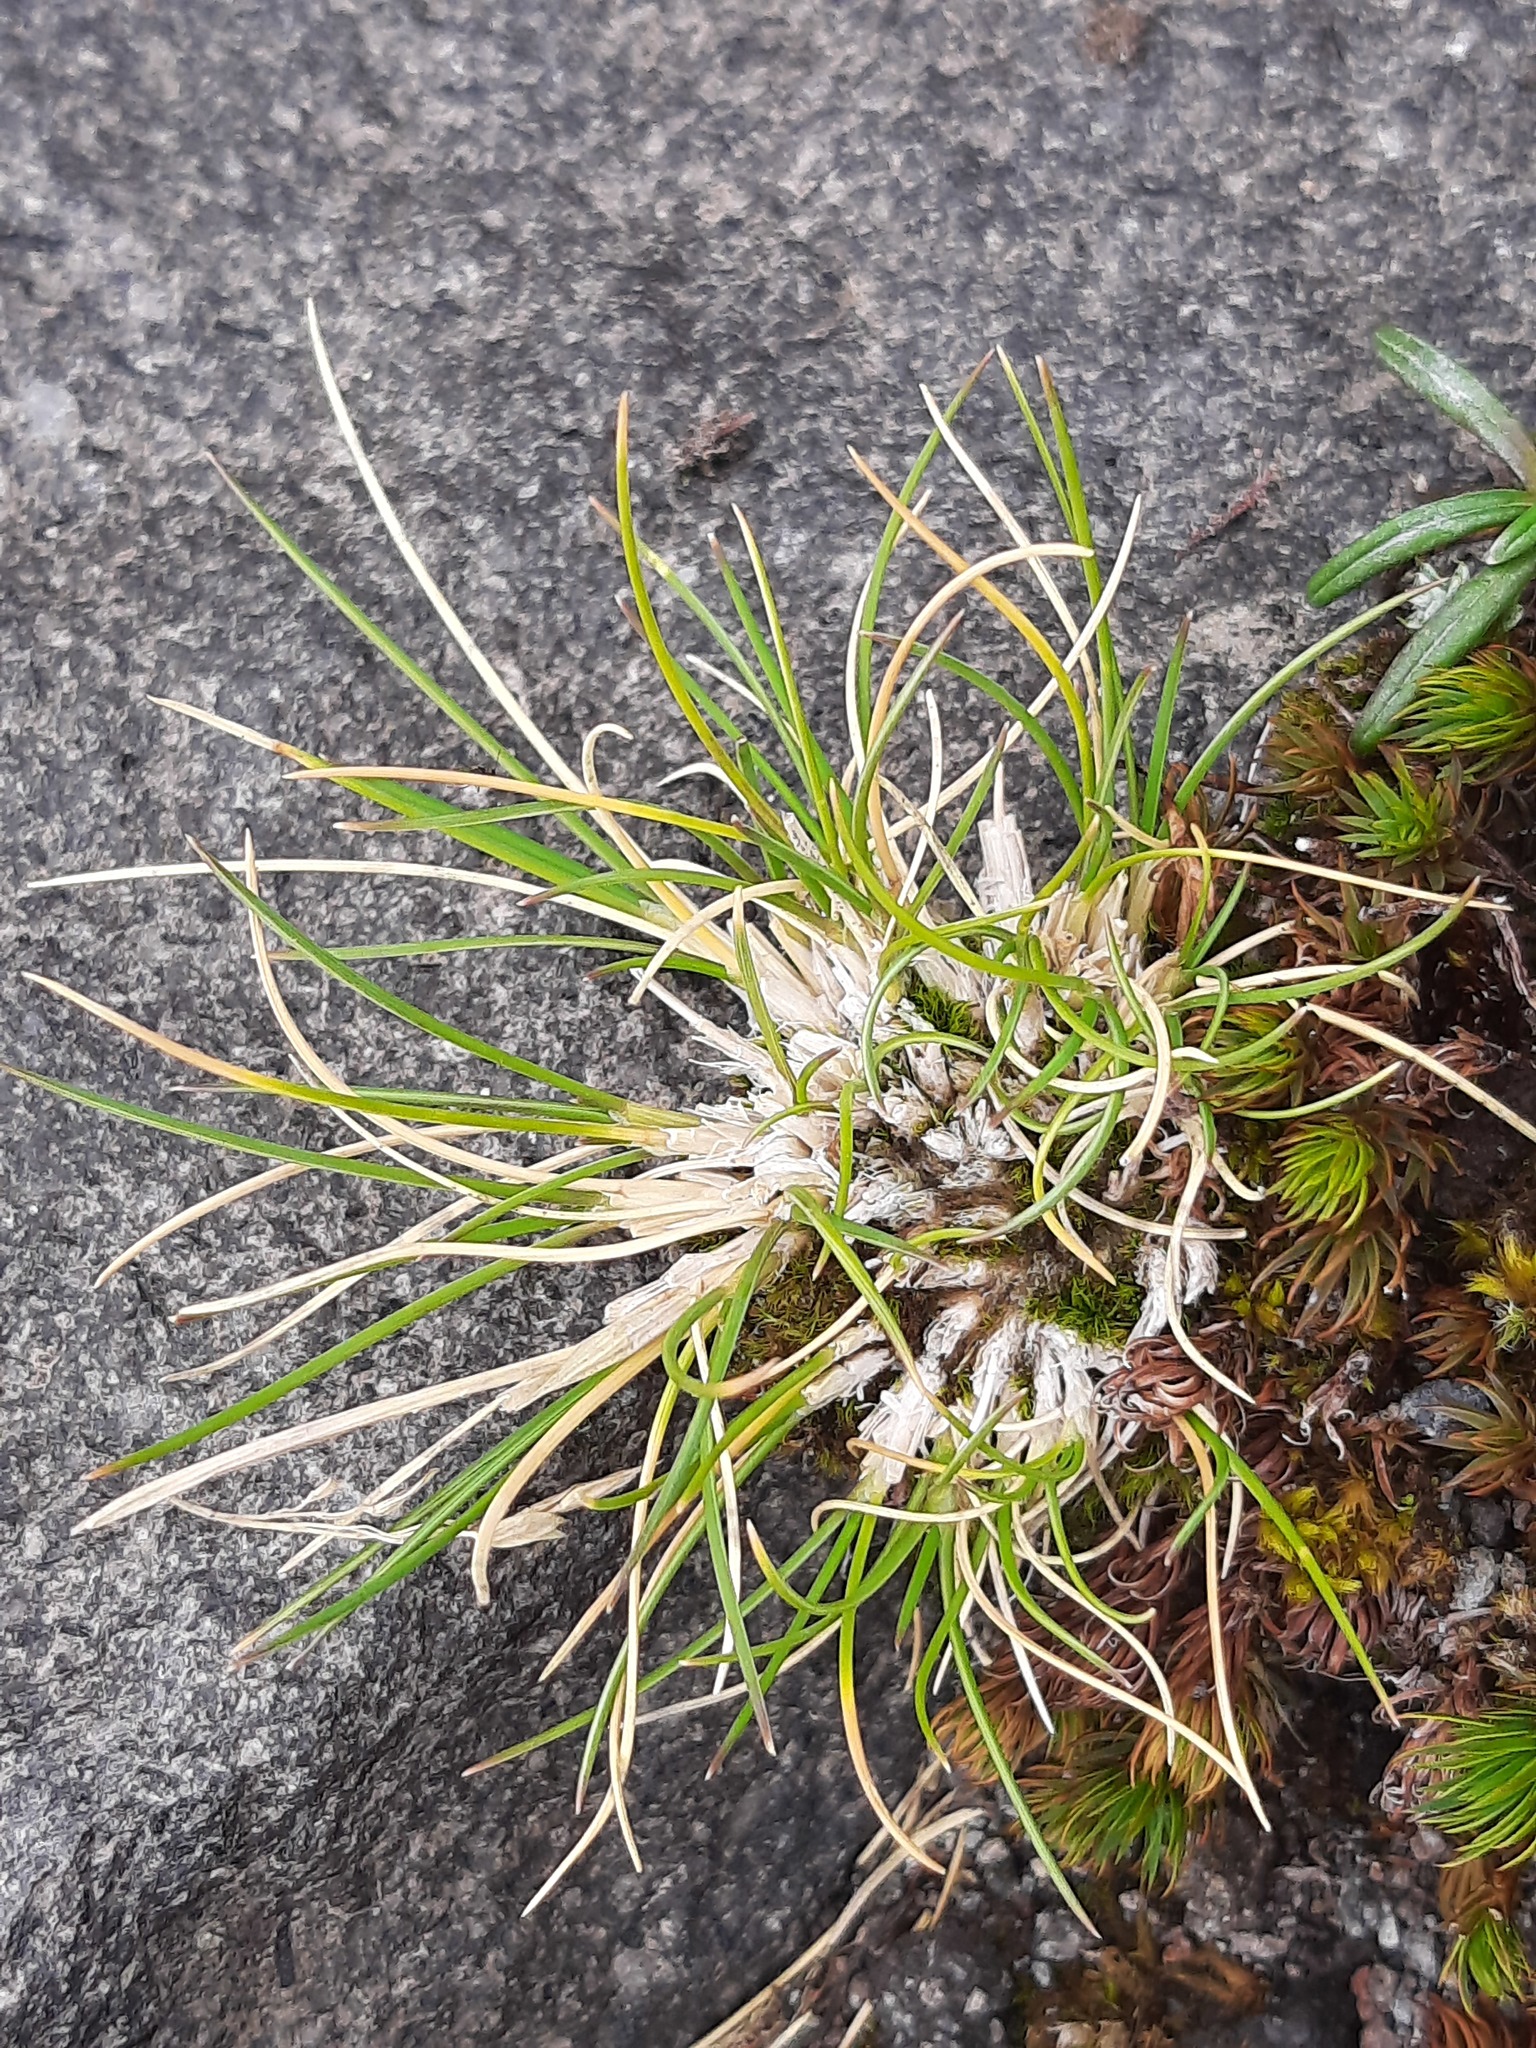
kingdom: Plantae
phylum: Tracheophyta
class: Liliopsida
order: Poales
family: Poaceae
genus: Poa
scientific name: Poa colensoi
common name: Blue tussock
